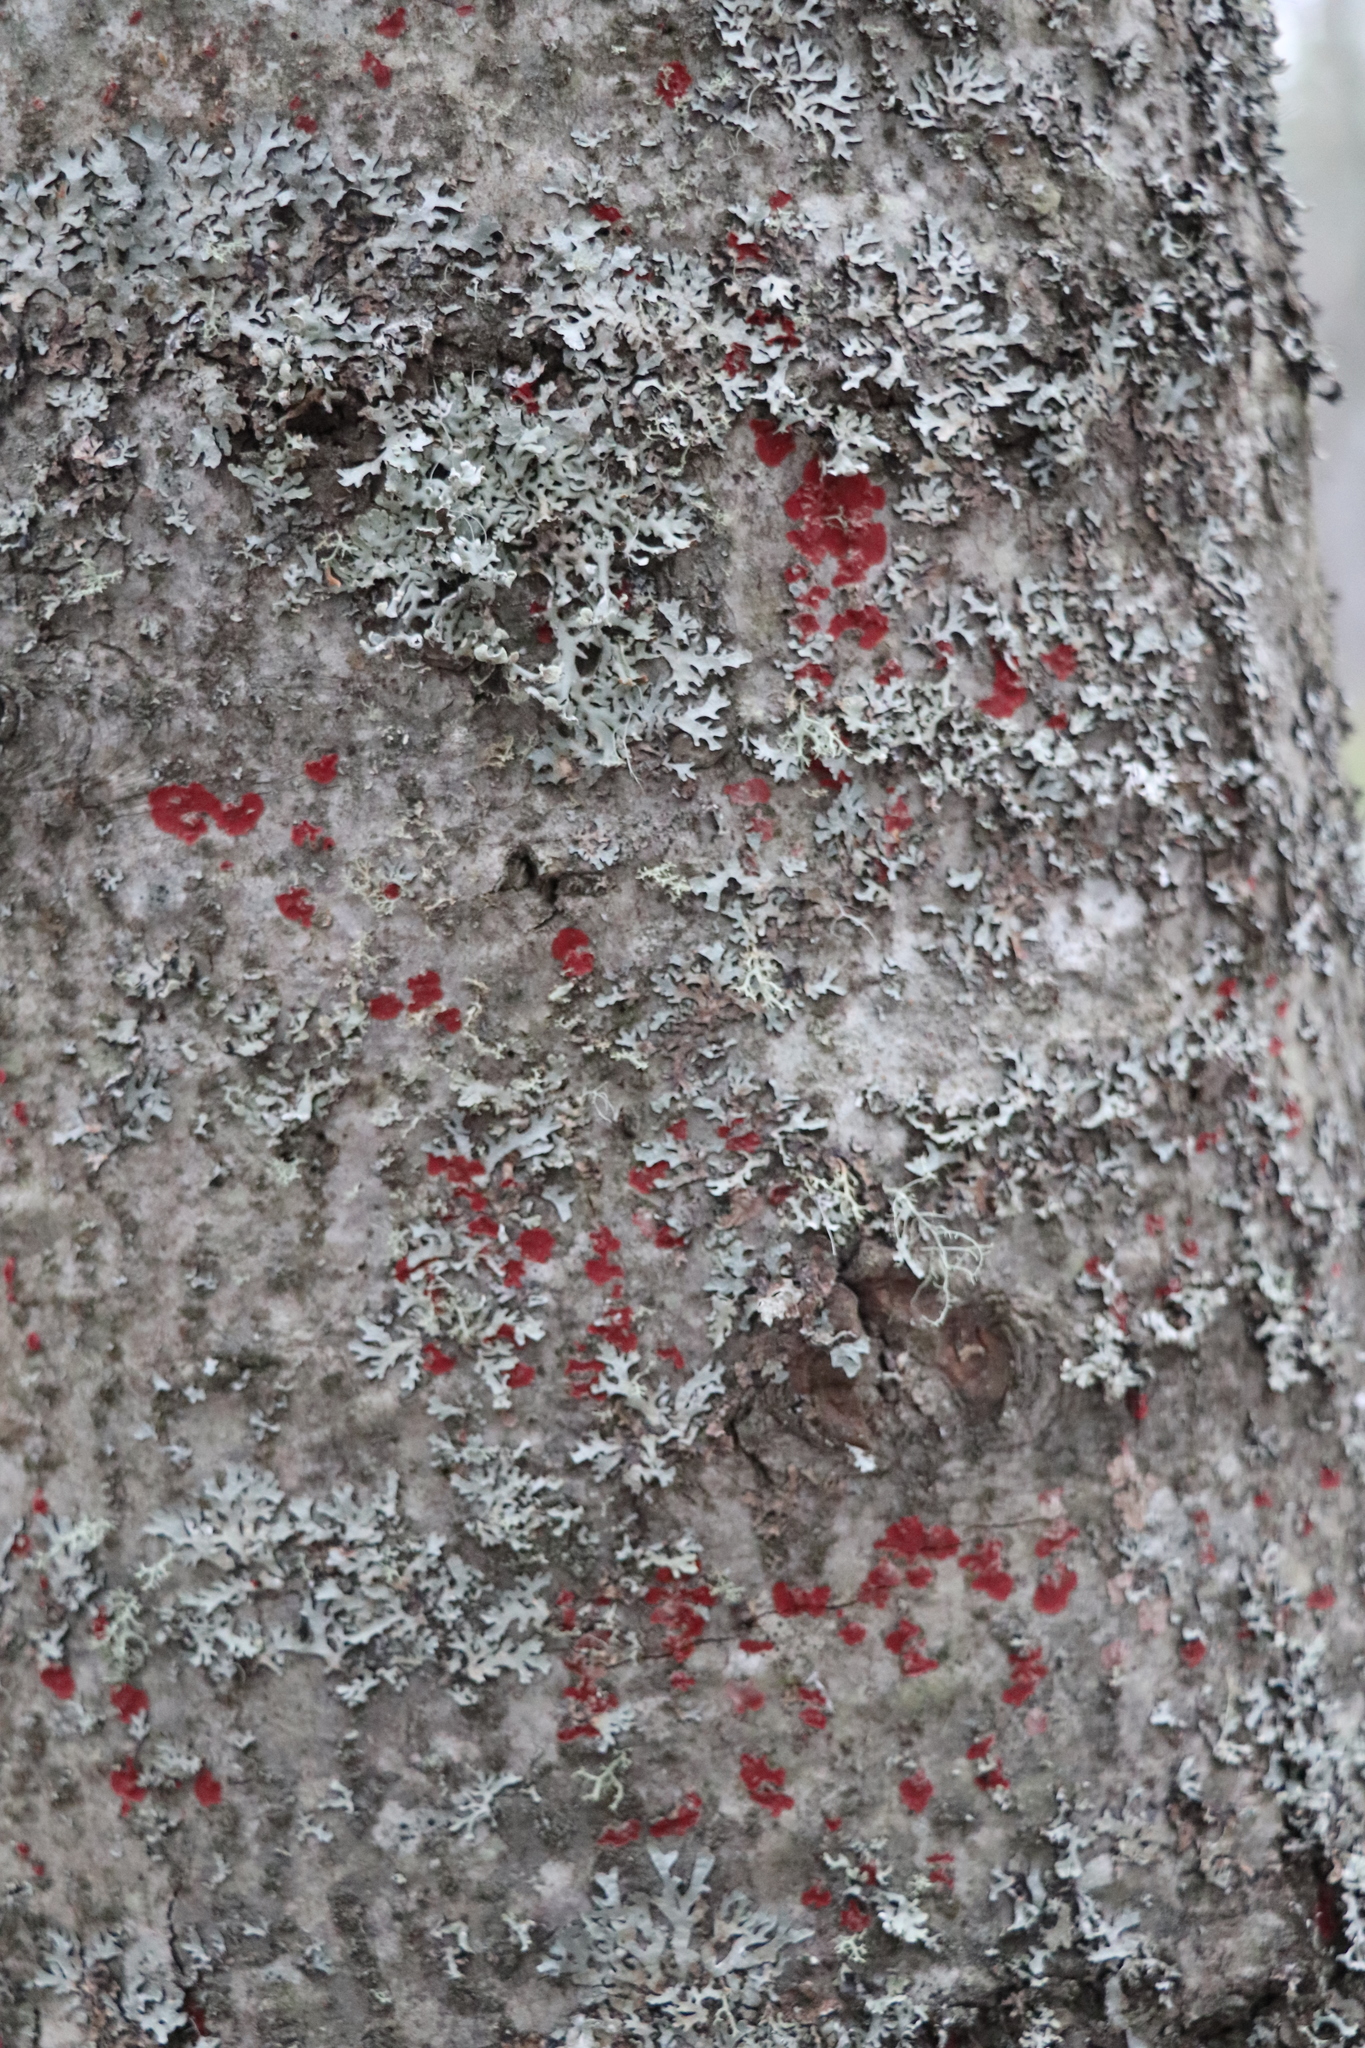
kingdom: Fungi
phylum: Basidiomycota
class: Agaricomycetes
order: Hymenochaetales
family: Hymenochaetaceae
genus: Hymenochaete
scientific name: Hymenochaete cruenta
